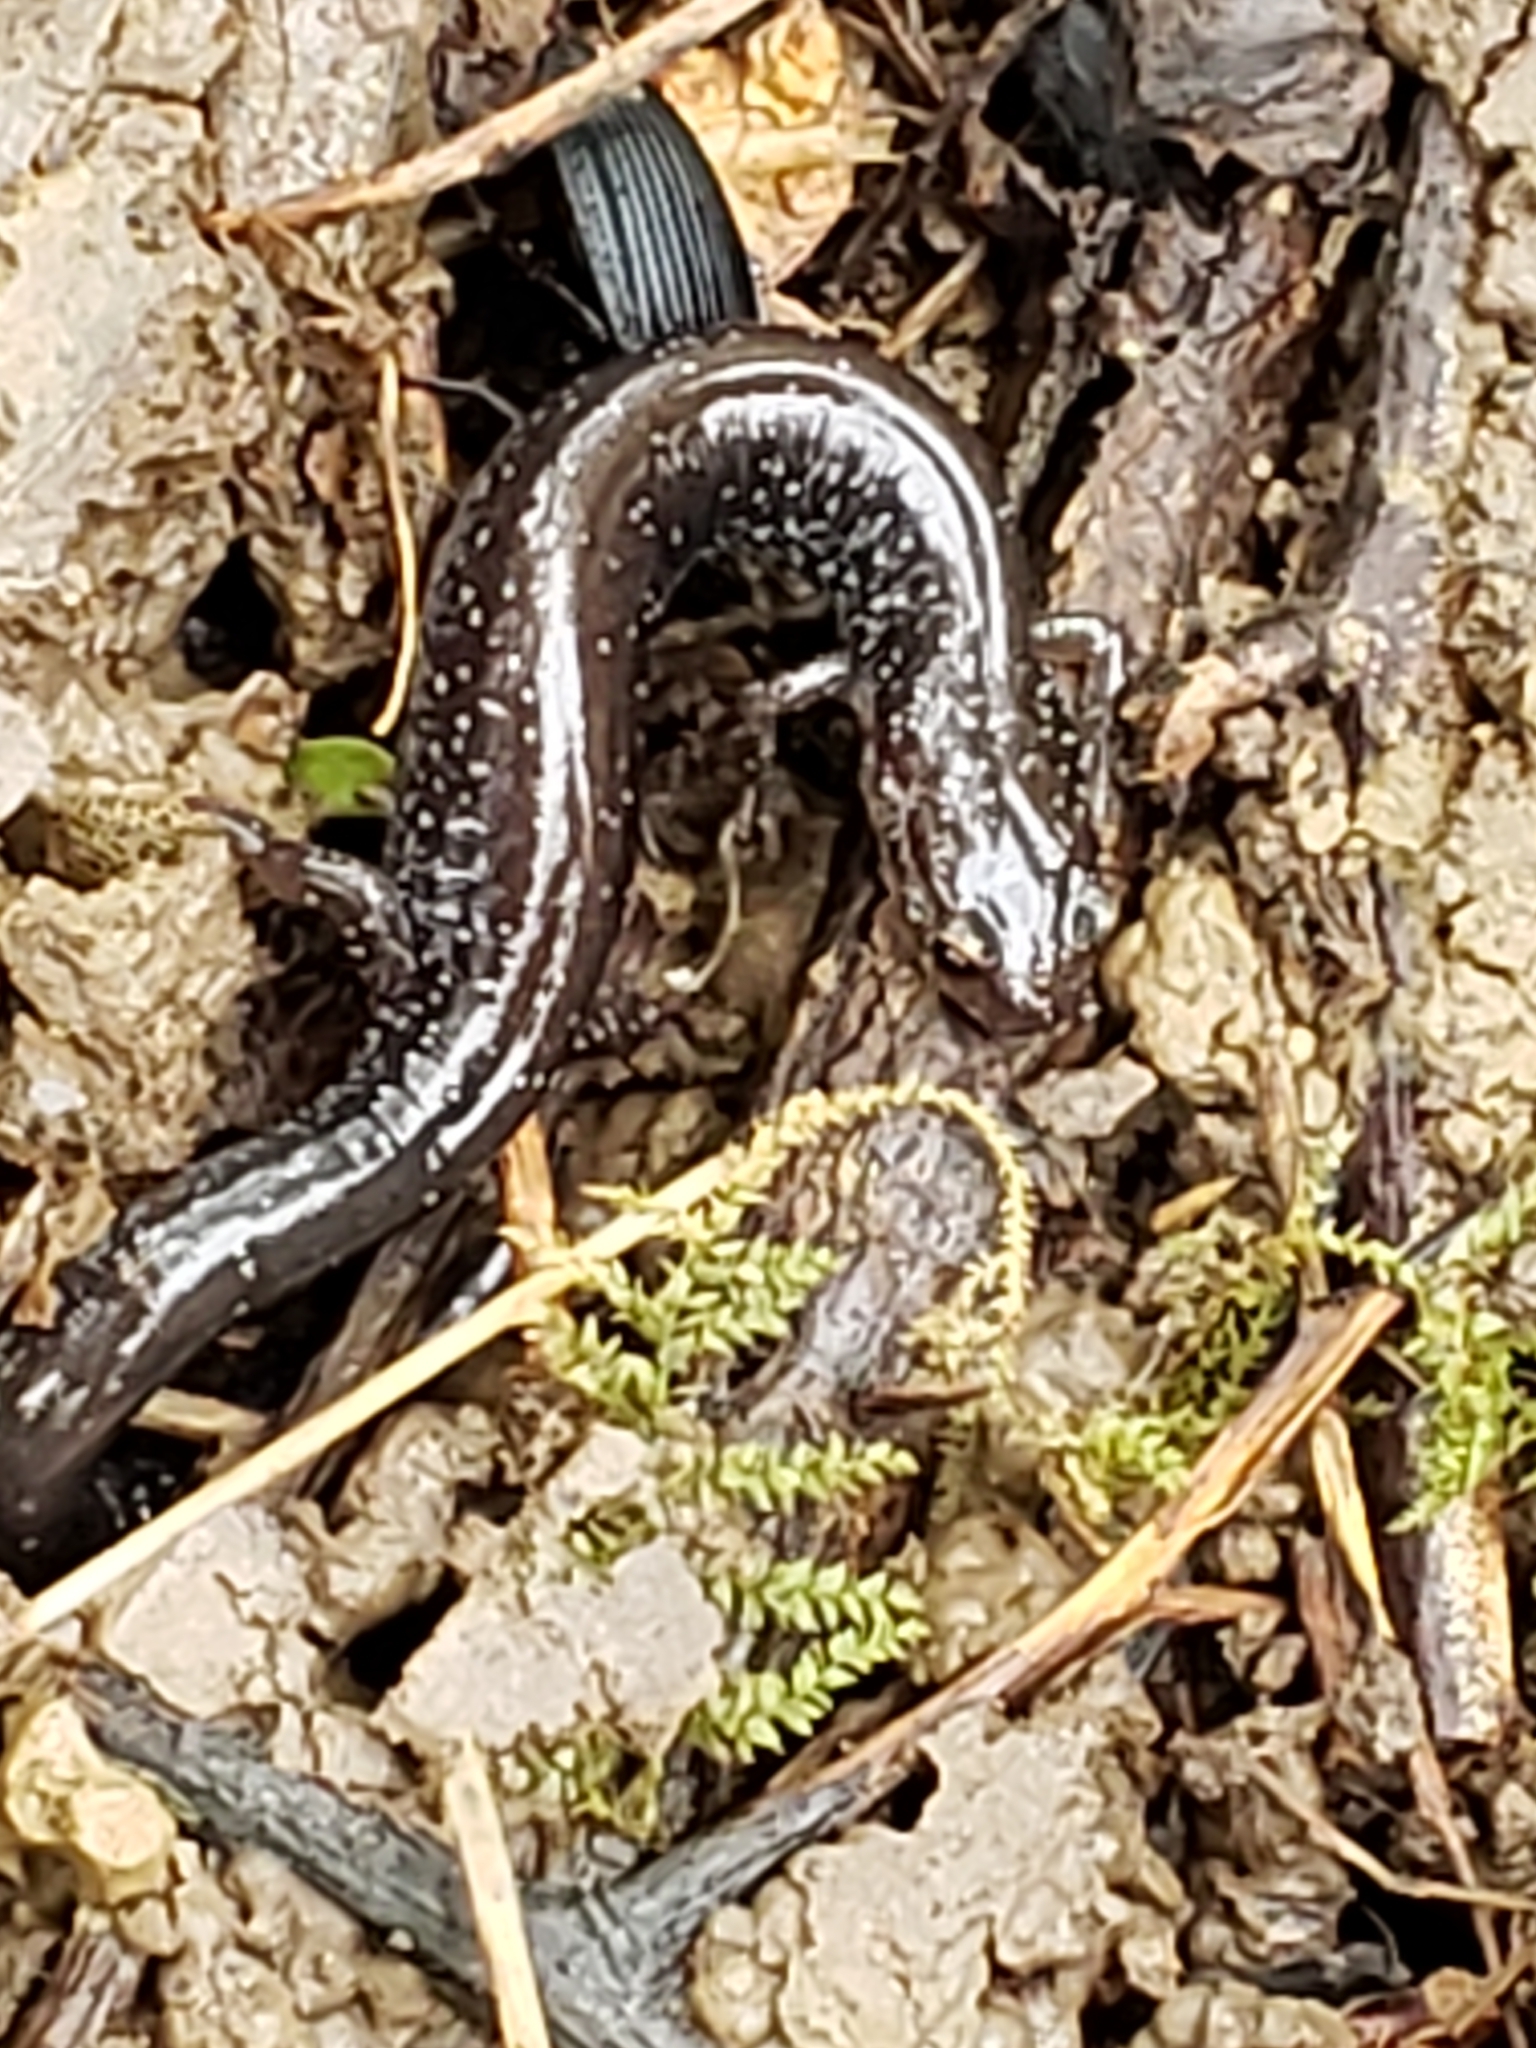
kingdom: Animalia
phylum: Chordata
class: Amphibia
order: Caudata
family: Plethodontidae
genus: Plethodon
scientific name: Plethodon cinereus
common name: Redback salamander
